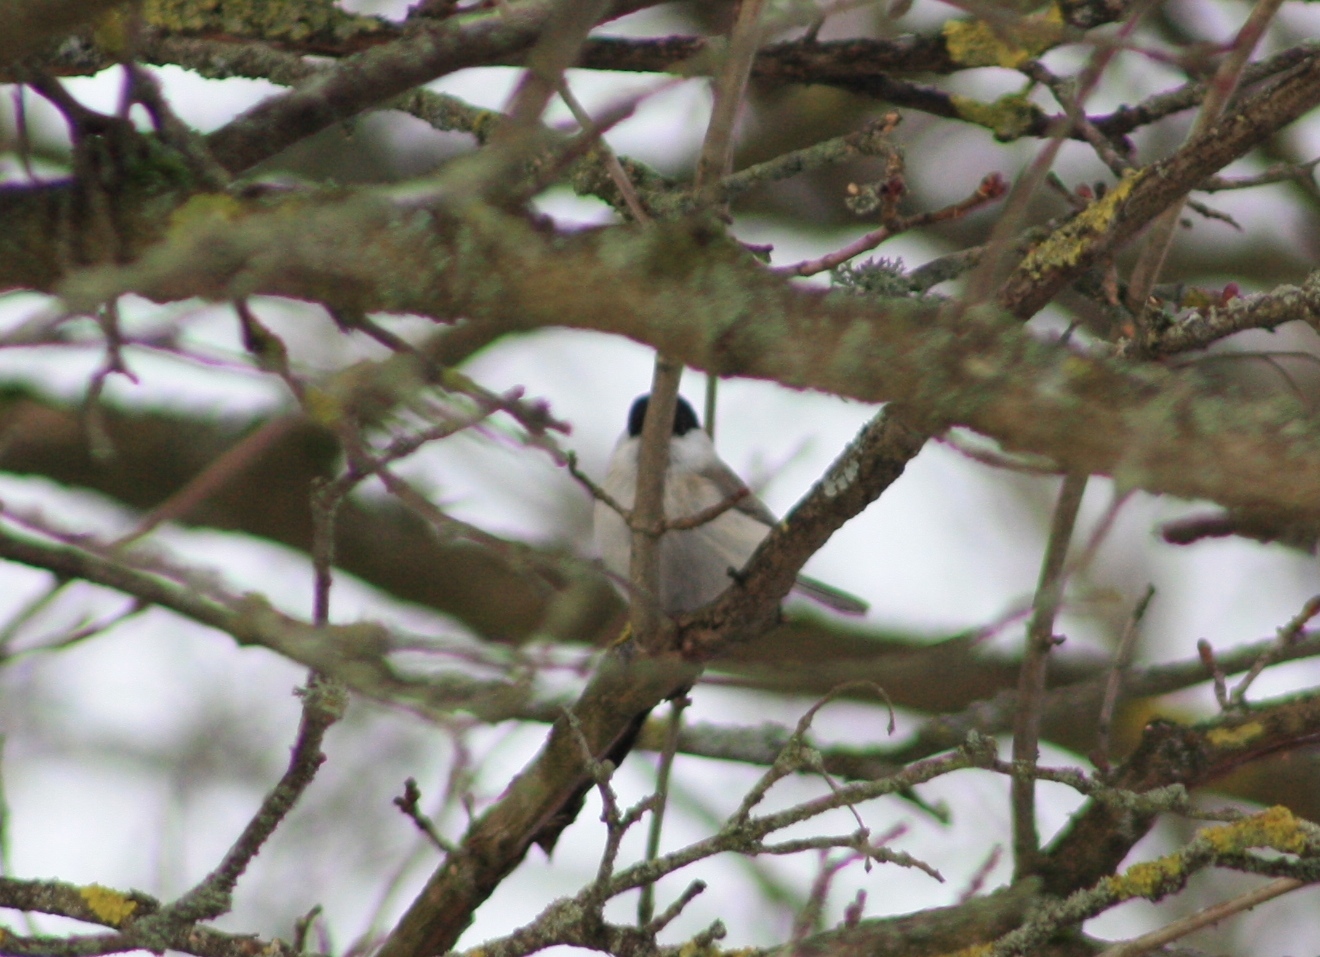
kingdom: Animalia
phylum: Chordata
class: Aves
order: Passeriformes
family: Paridae
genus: Poecile
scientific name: Poecile palustris
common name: Marsh tit
